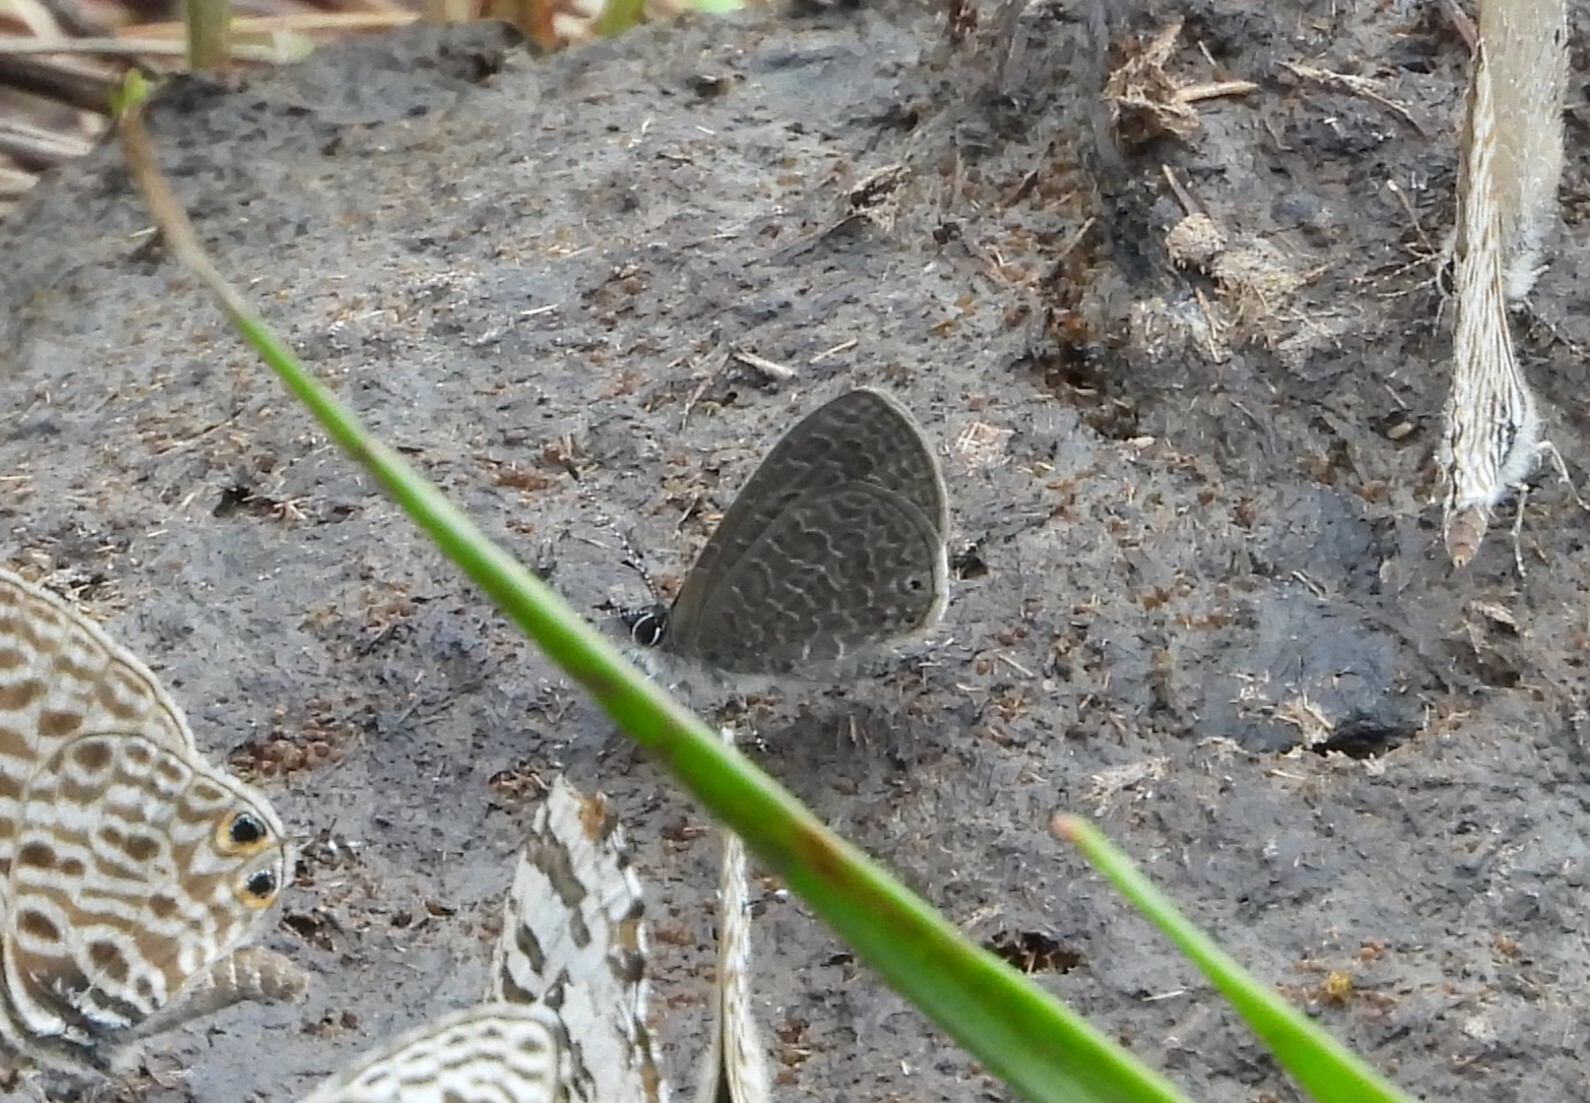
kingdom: Animalia
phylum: Arthropoda
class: Insecta
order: Lepidoptera
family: Lycaenidae
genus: Pseudonacaduba
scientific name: Pseudonacaduba sichela
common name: African line blue
